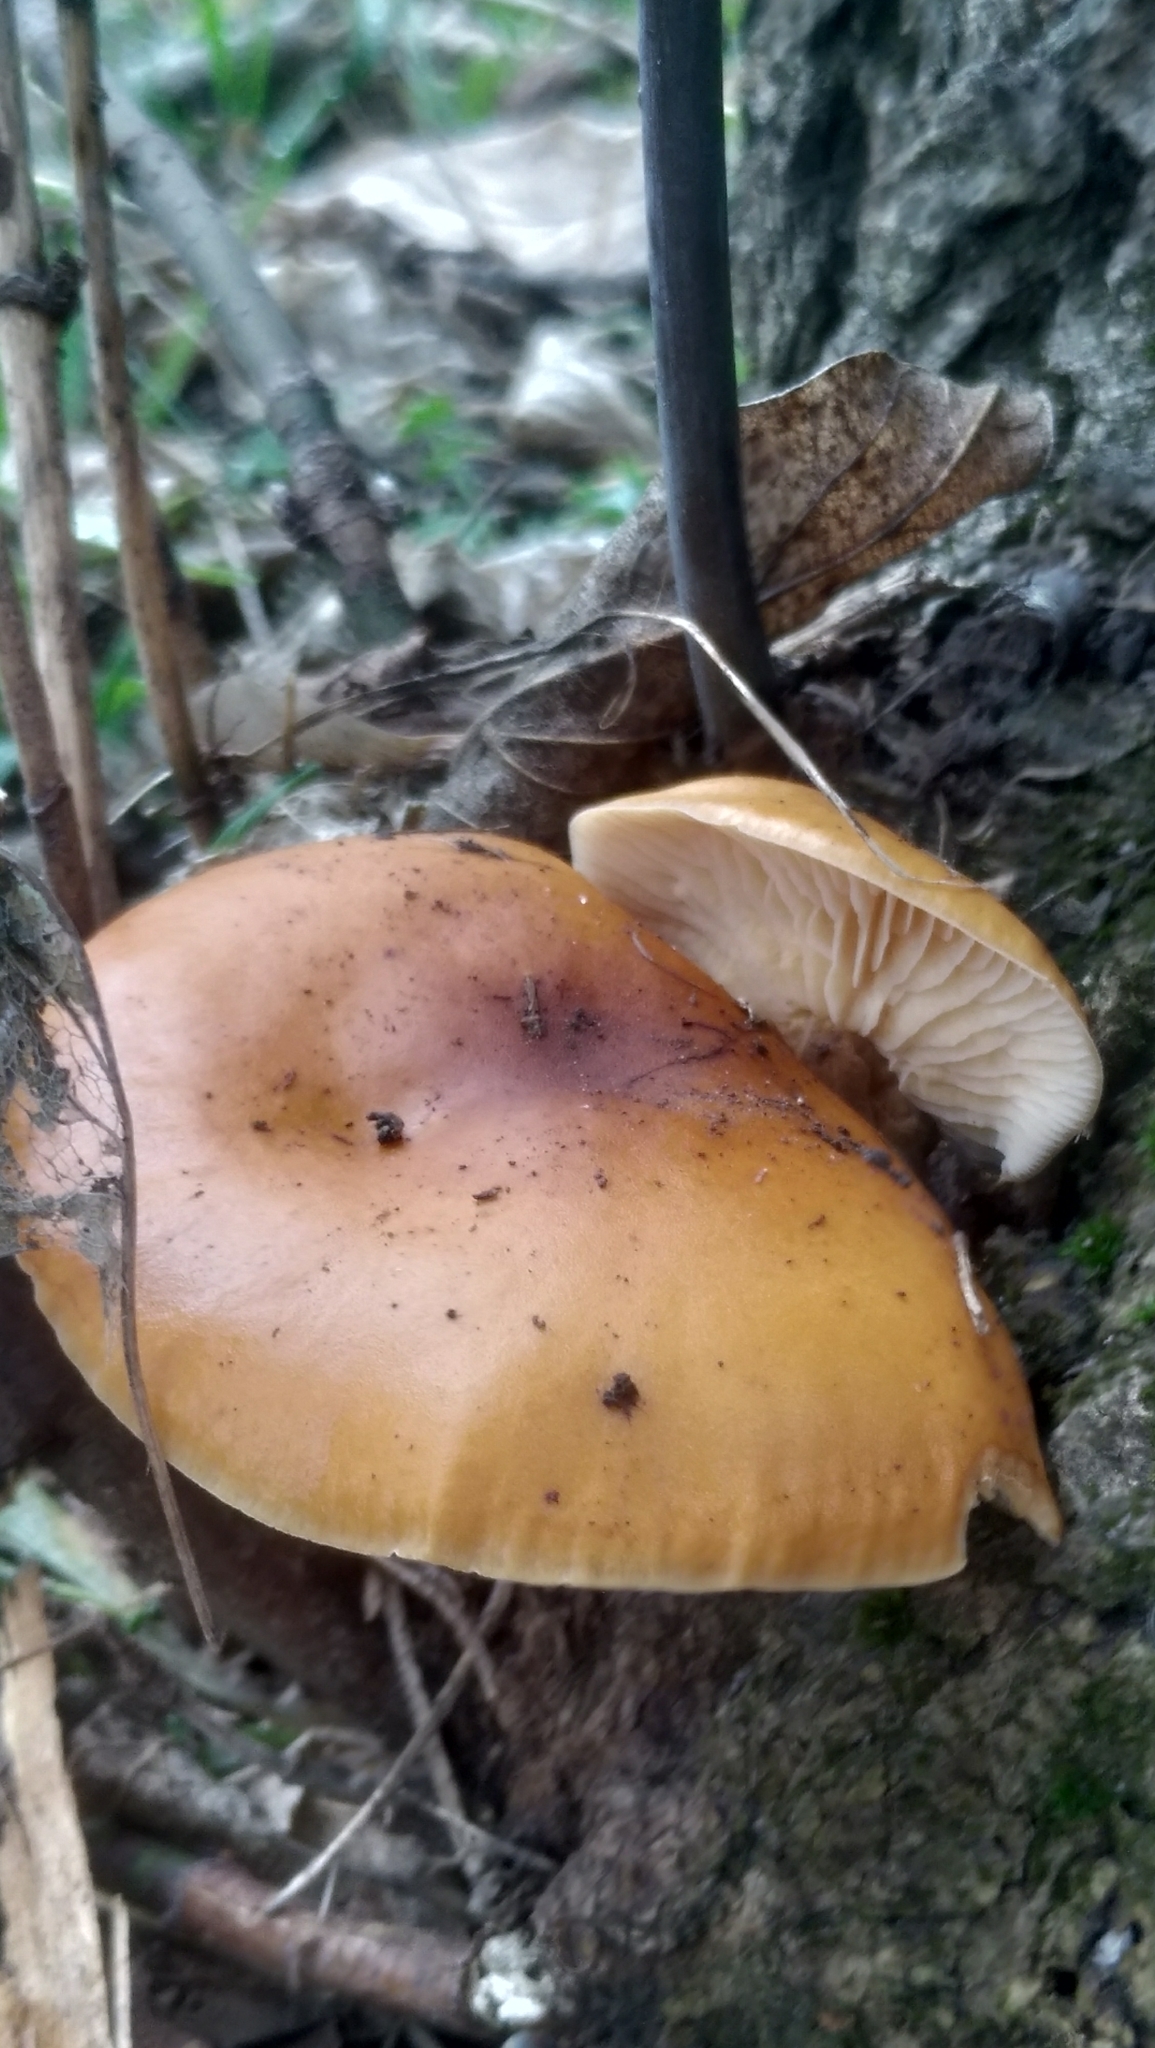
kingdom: Fungi
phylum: Basidiomycota
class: Agaricomycetes
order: Agaricales
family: Physalacriaceae
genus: Flammulina
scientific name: Flammulina
